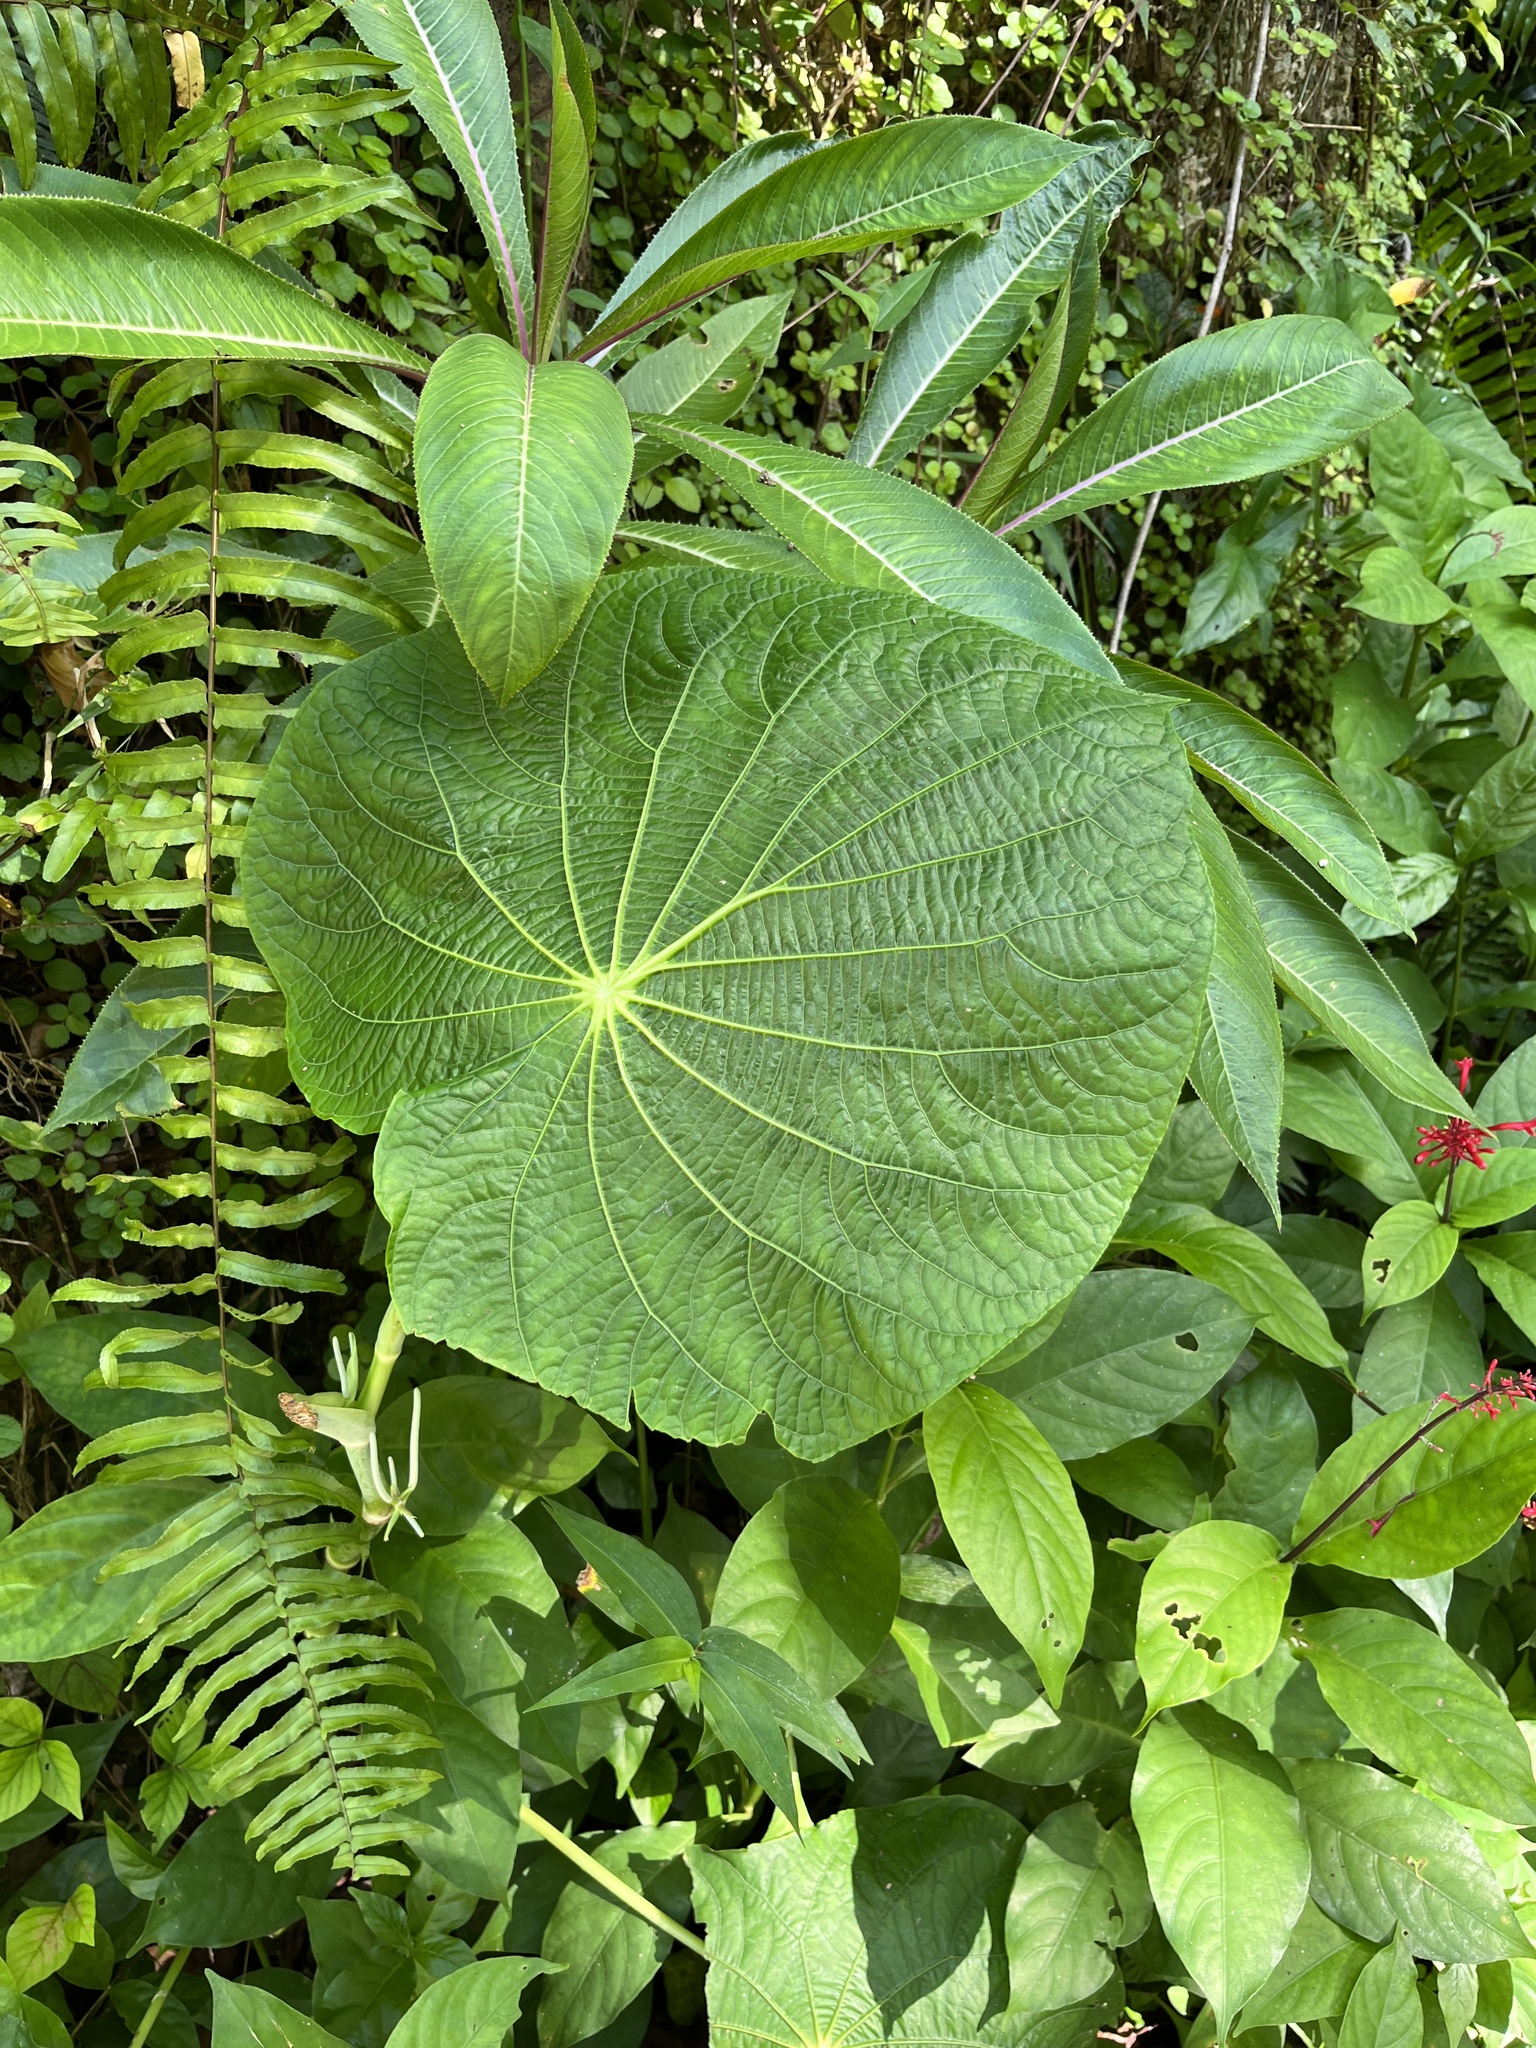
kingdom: Plantae
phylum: Tracheophyta
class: Magnoliopsida
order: Piperales
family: Piperaceae
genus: Piper
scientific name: Piper peltatum
